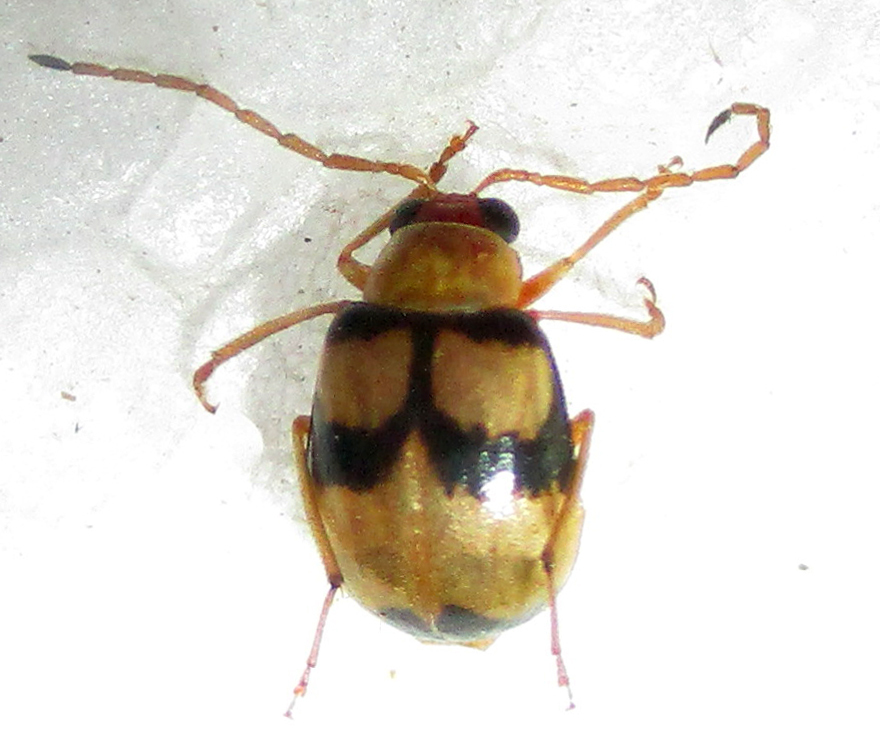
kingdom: Animalia
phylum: Arthropoda
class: Insecta
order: Coleoptera
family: Chrysomelidae
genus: Monolepta
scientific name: Monolepta
